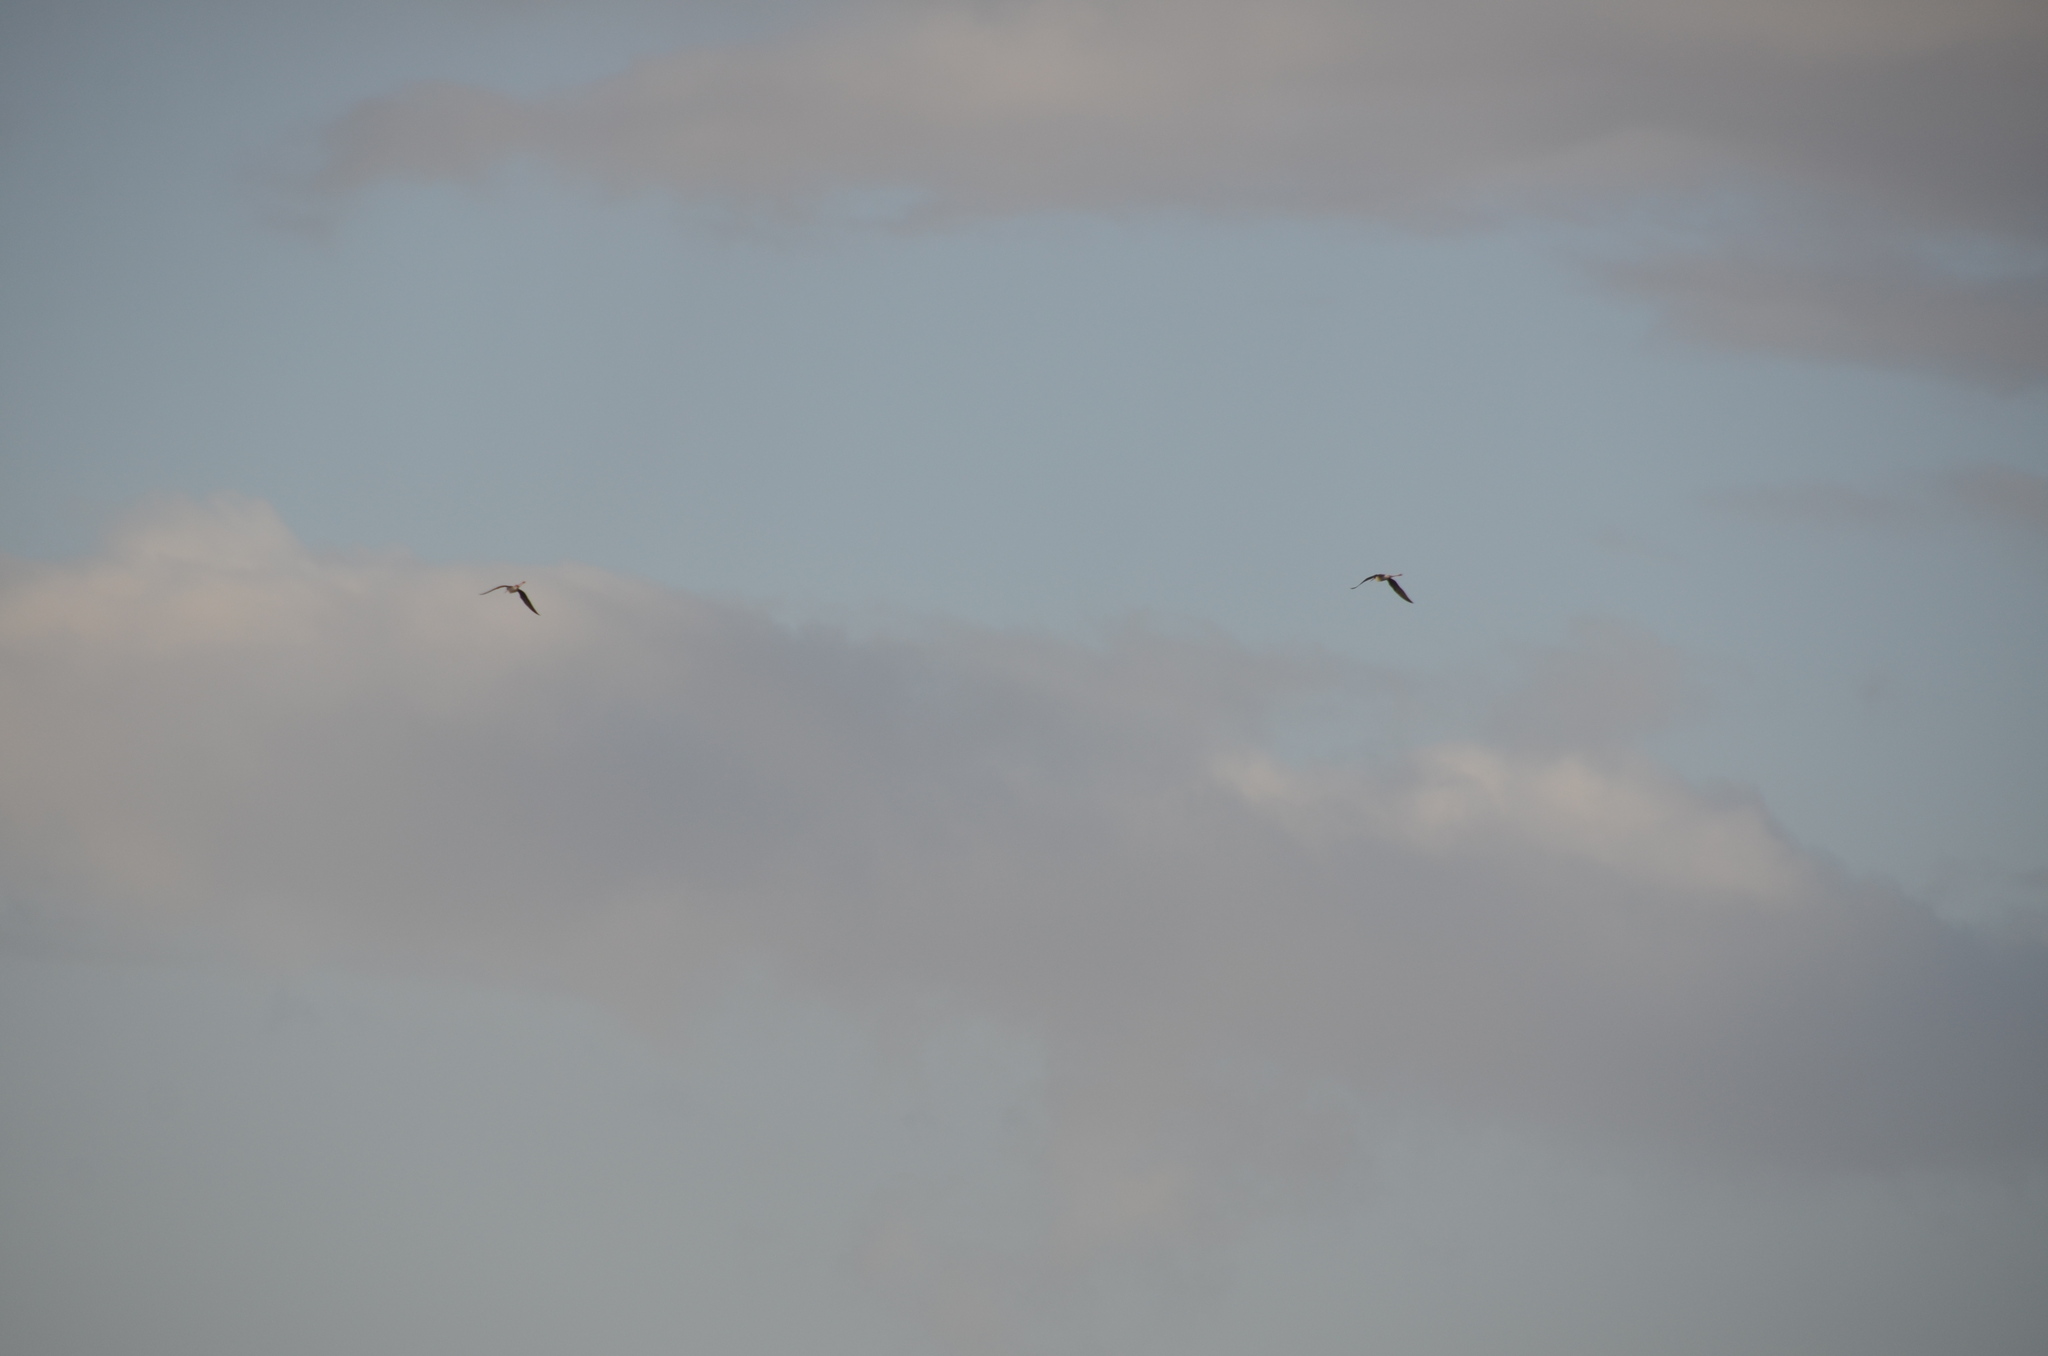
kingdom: Animalia
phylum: Chordata
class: Aves
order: Charadriiformes
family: Recurvirostridae
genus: Himantopus
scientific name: Himantopus mexicanus
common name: Black-necked stilt
